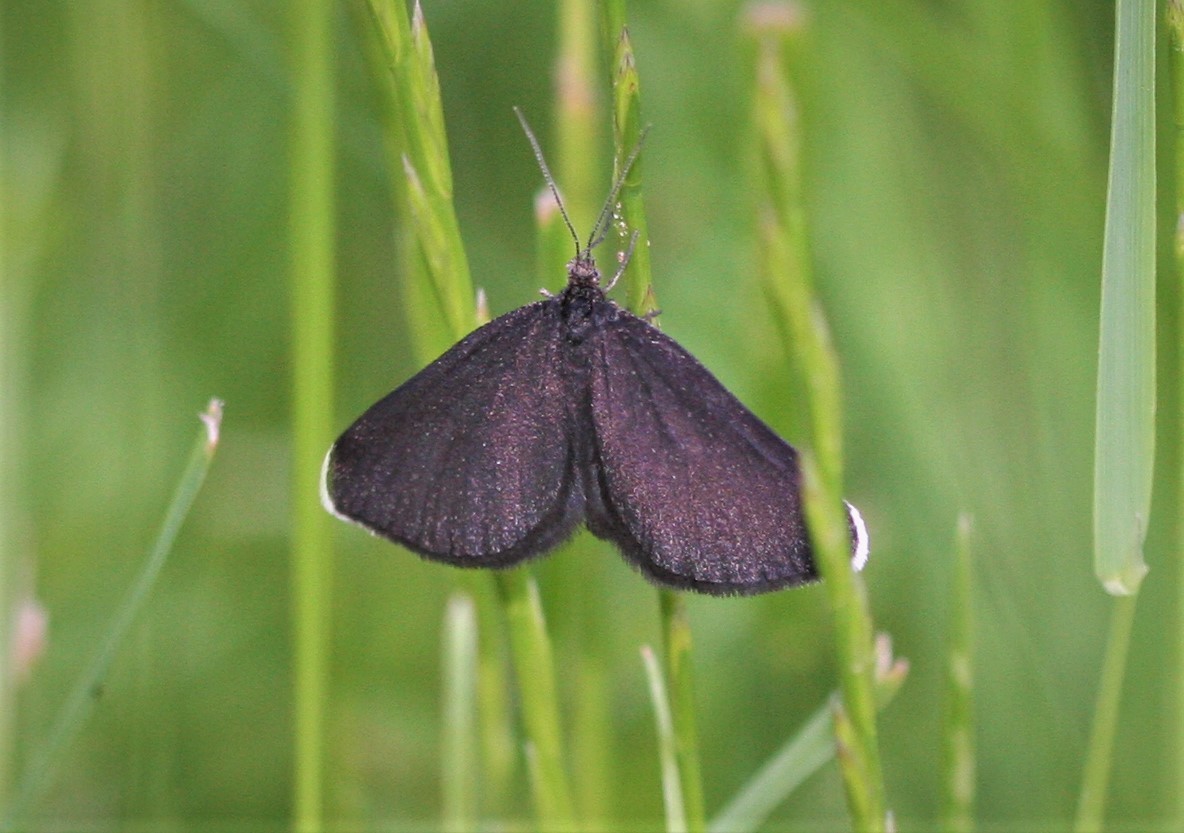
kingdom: Animalia
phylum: Arthropoda
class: Insecta
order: Lepidoptera
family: Geometridae
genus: Odezia
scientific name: Odezia atrata
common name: Chimney sweeper
